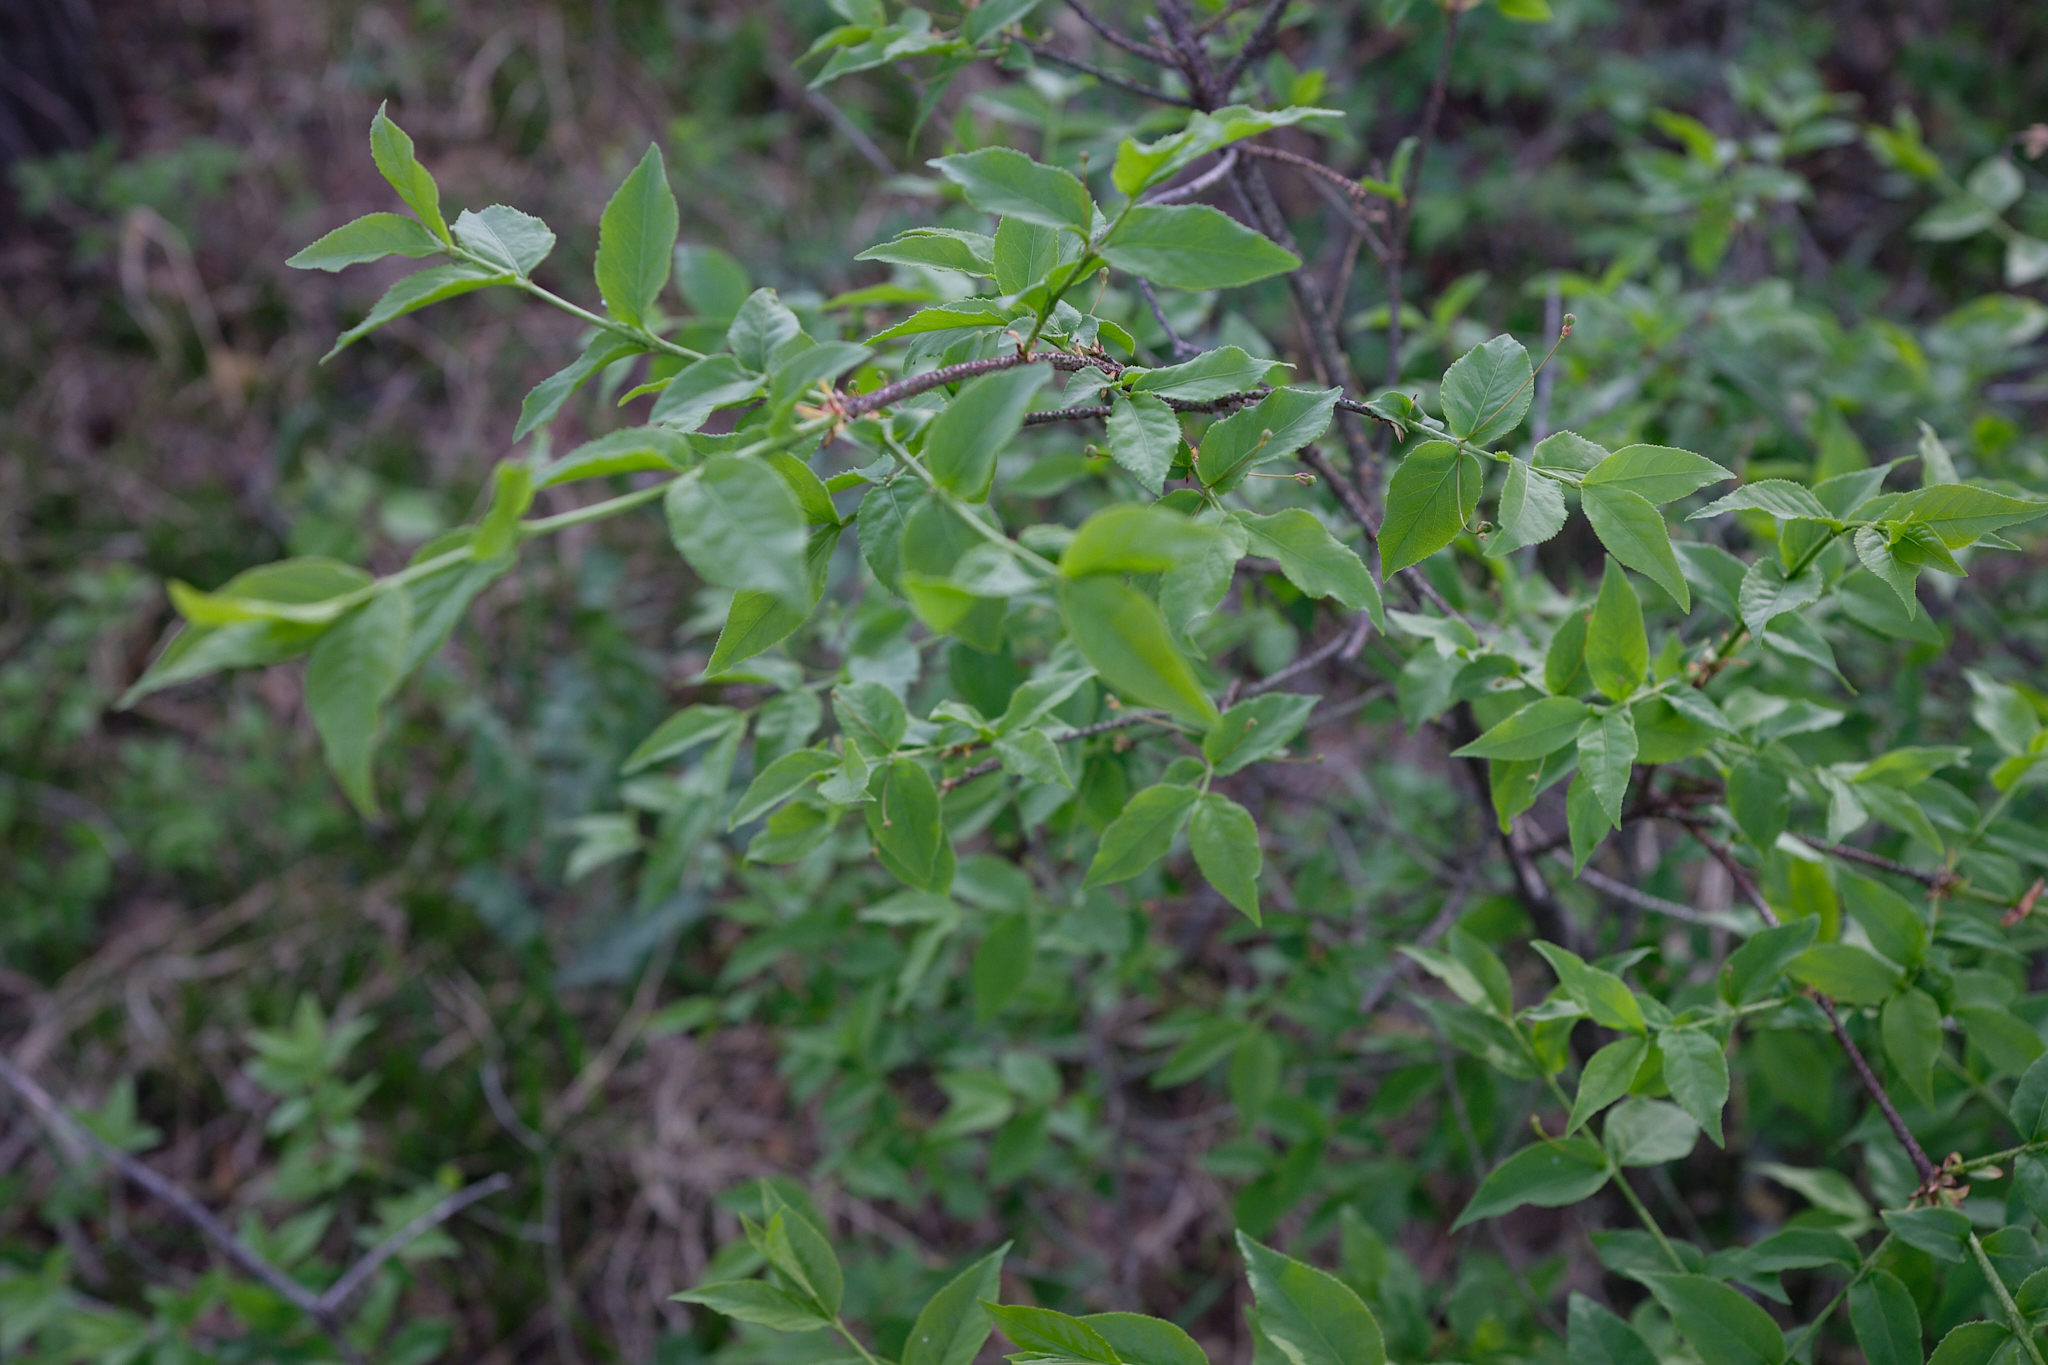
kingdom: Plantae
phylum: Tracheophyta
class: Magnoliopsida
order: Celastrales
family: Celastraceae
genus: Euonymus
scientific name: Euonymus verrucosus
